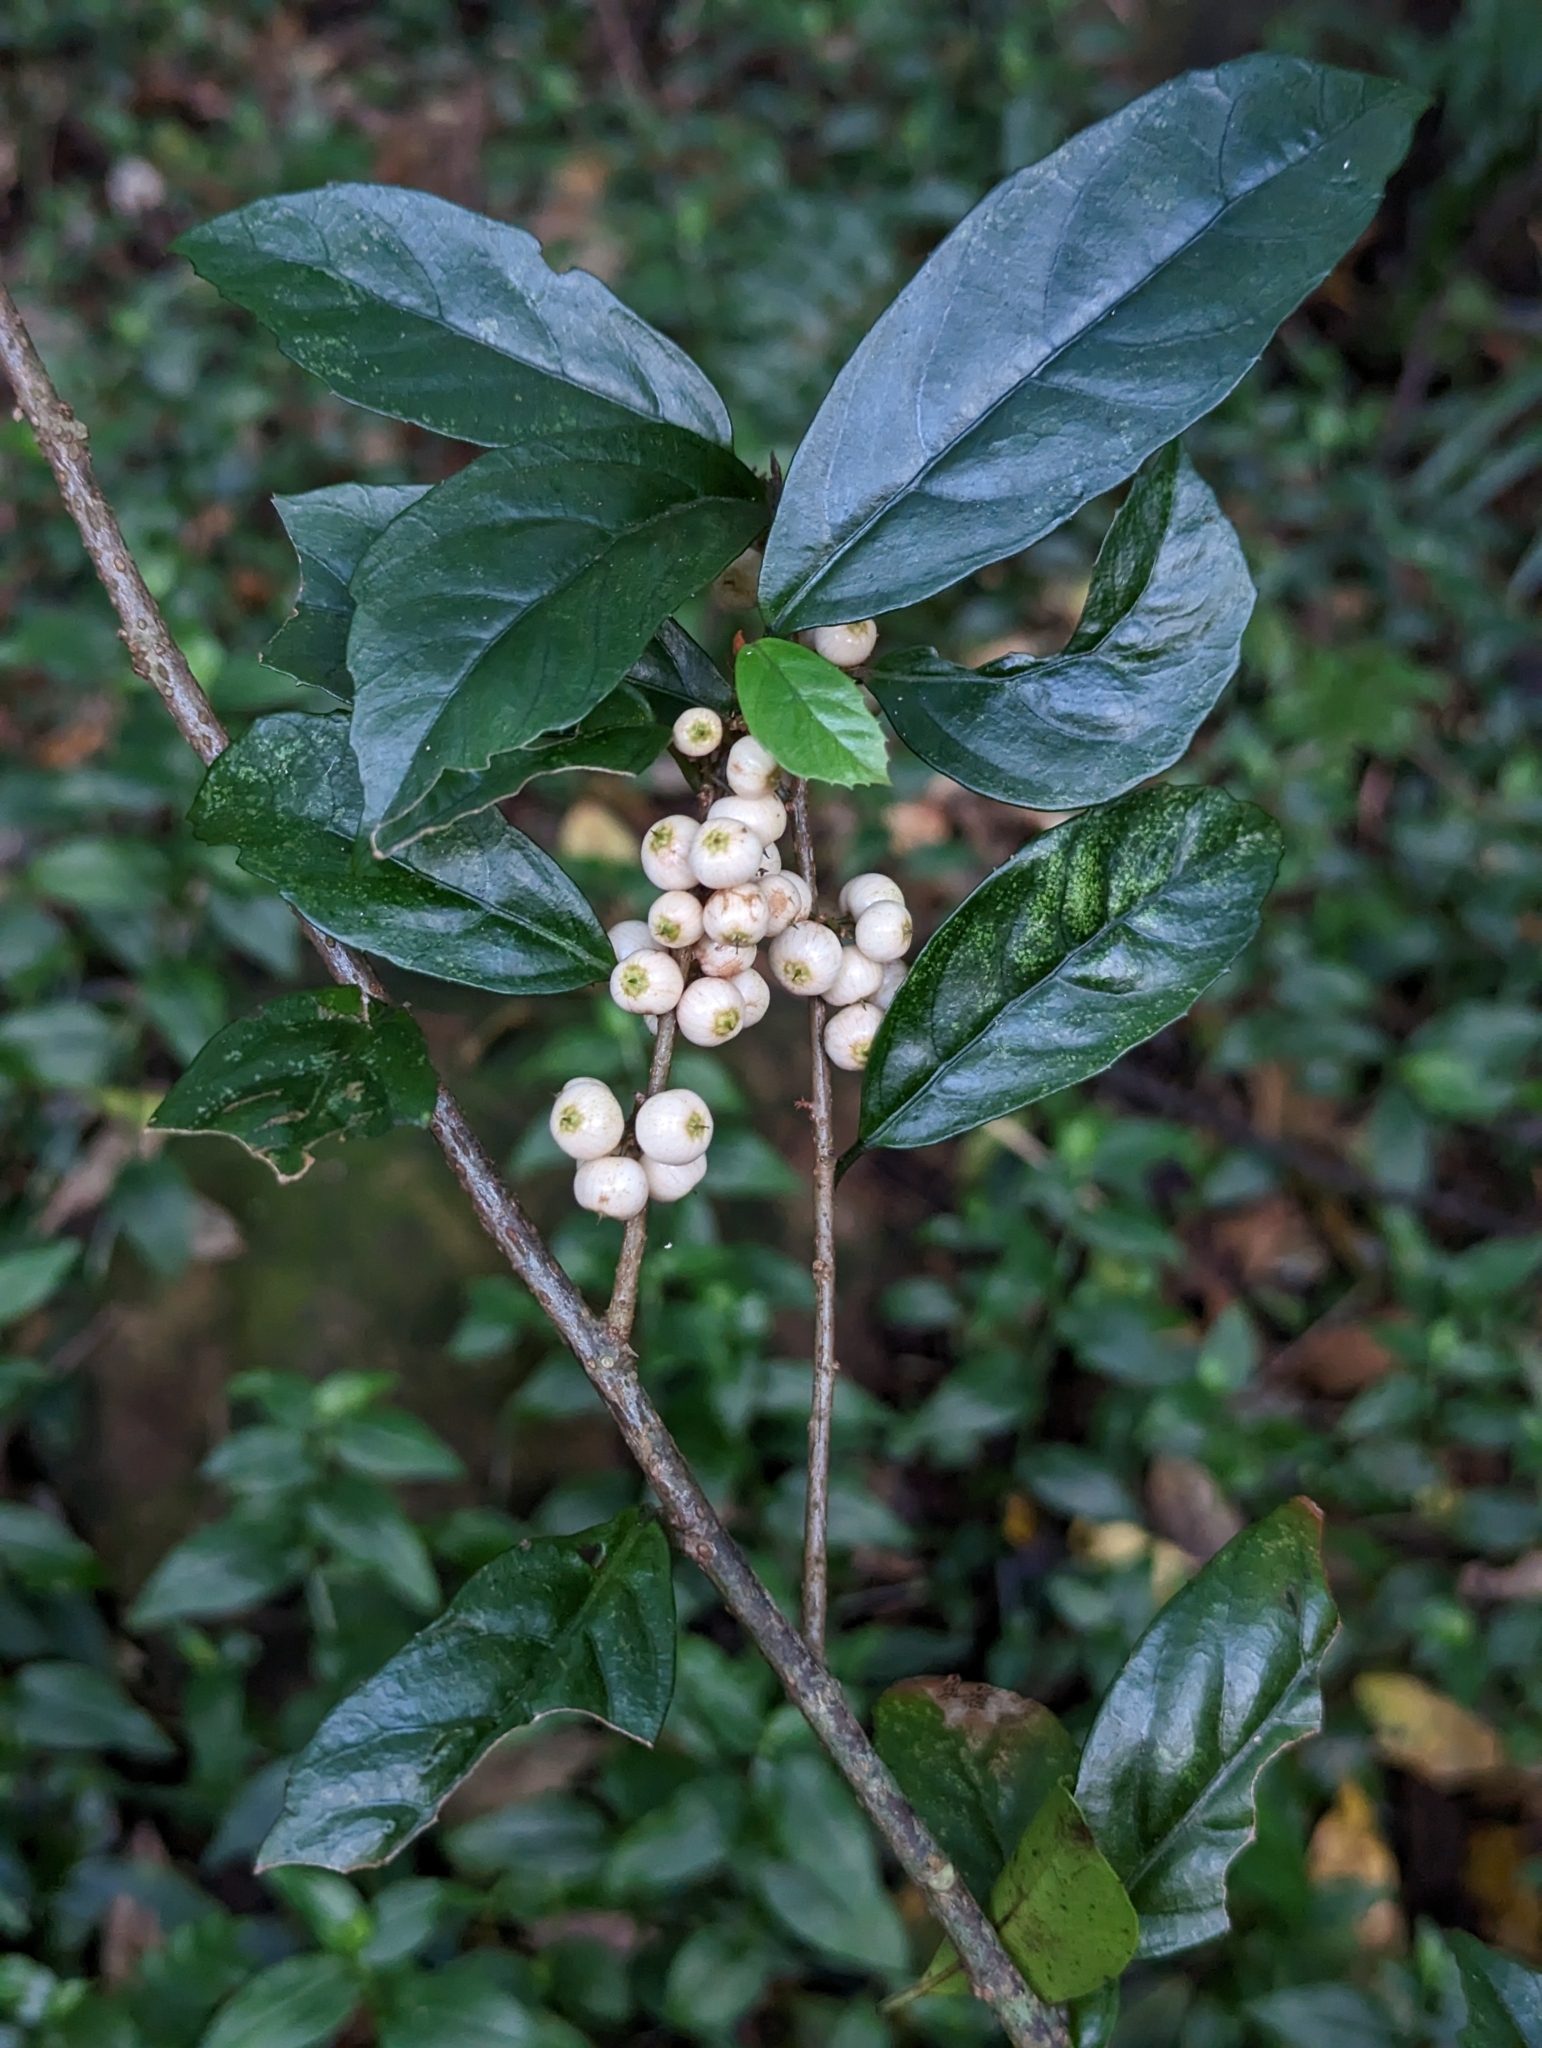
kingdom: Plantae
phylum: Tracheophyta
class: Magnoliopsida
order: Ericales
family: Primulaceae
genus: Maesa
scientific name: Maesa japonica
